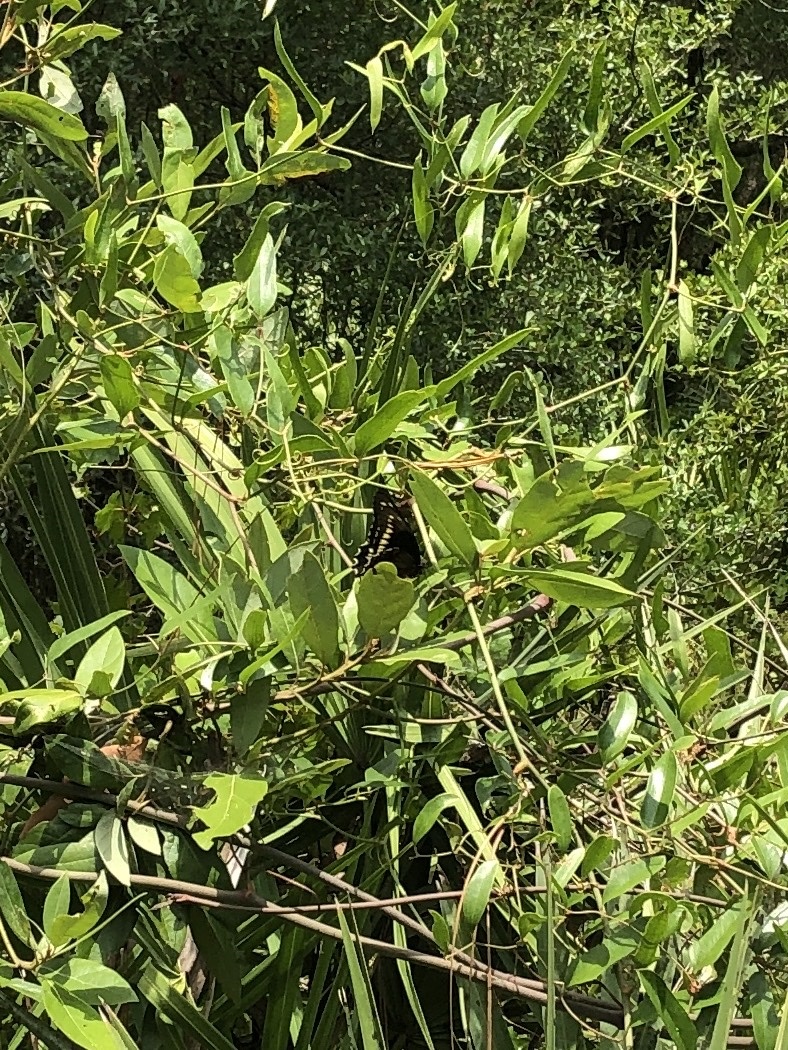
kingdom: Animalia
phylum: Arthropoda
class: Insecta
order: Lepidoptera
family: Papilionidae
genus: Battus
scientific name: Battus polydamas
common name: Polydamas swallowtail
